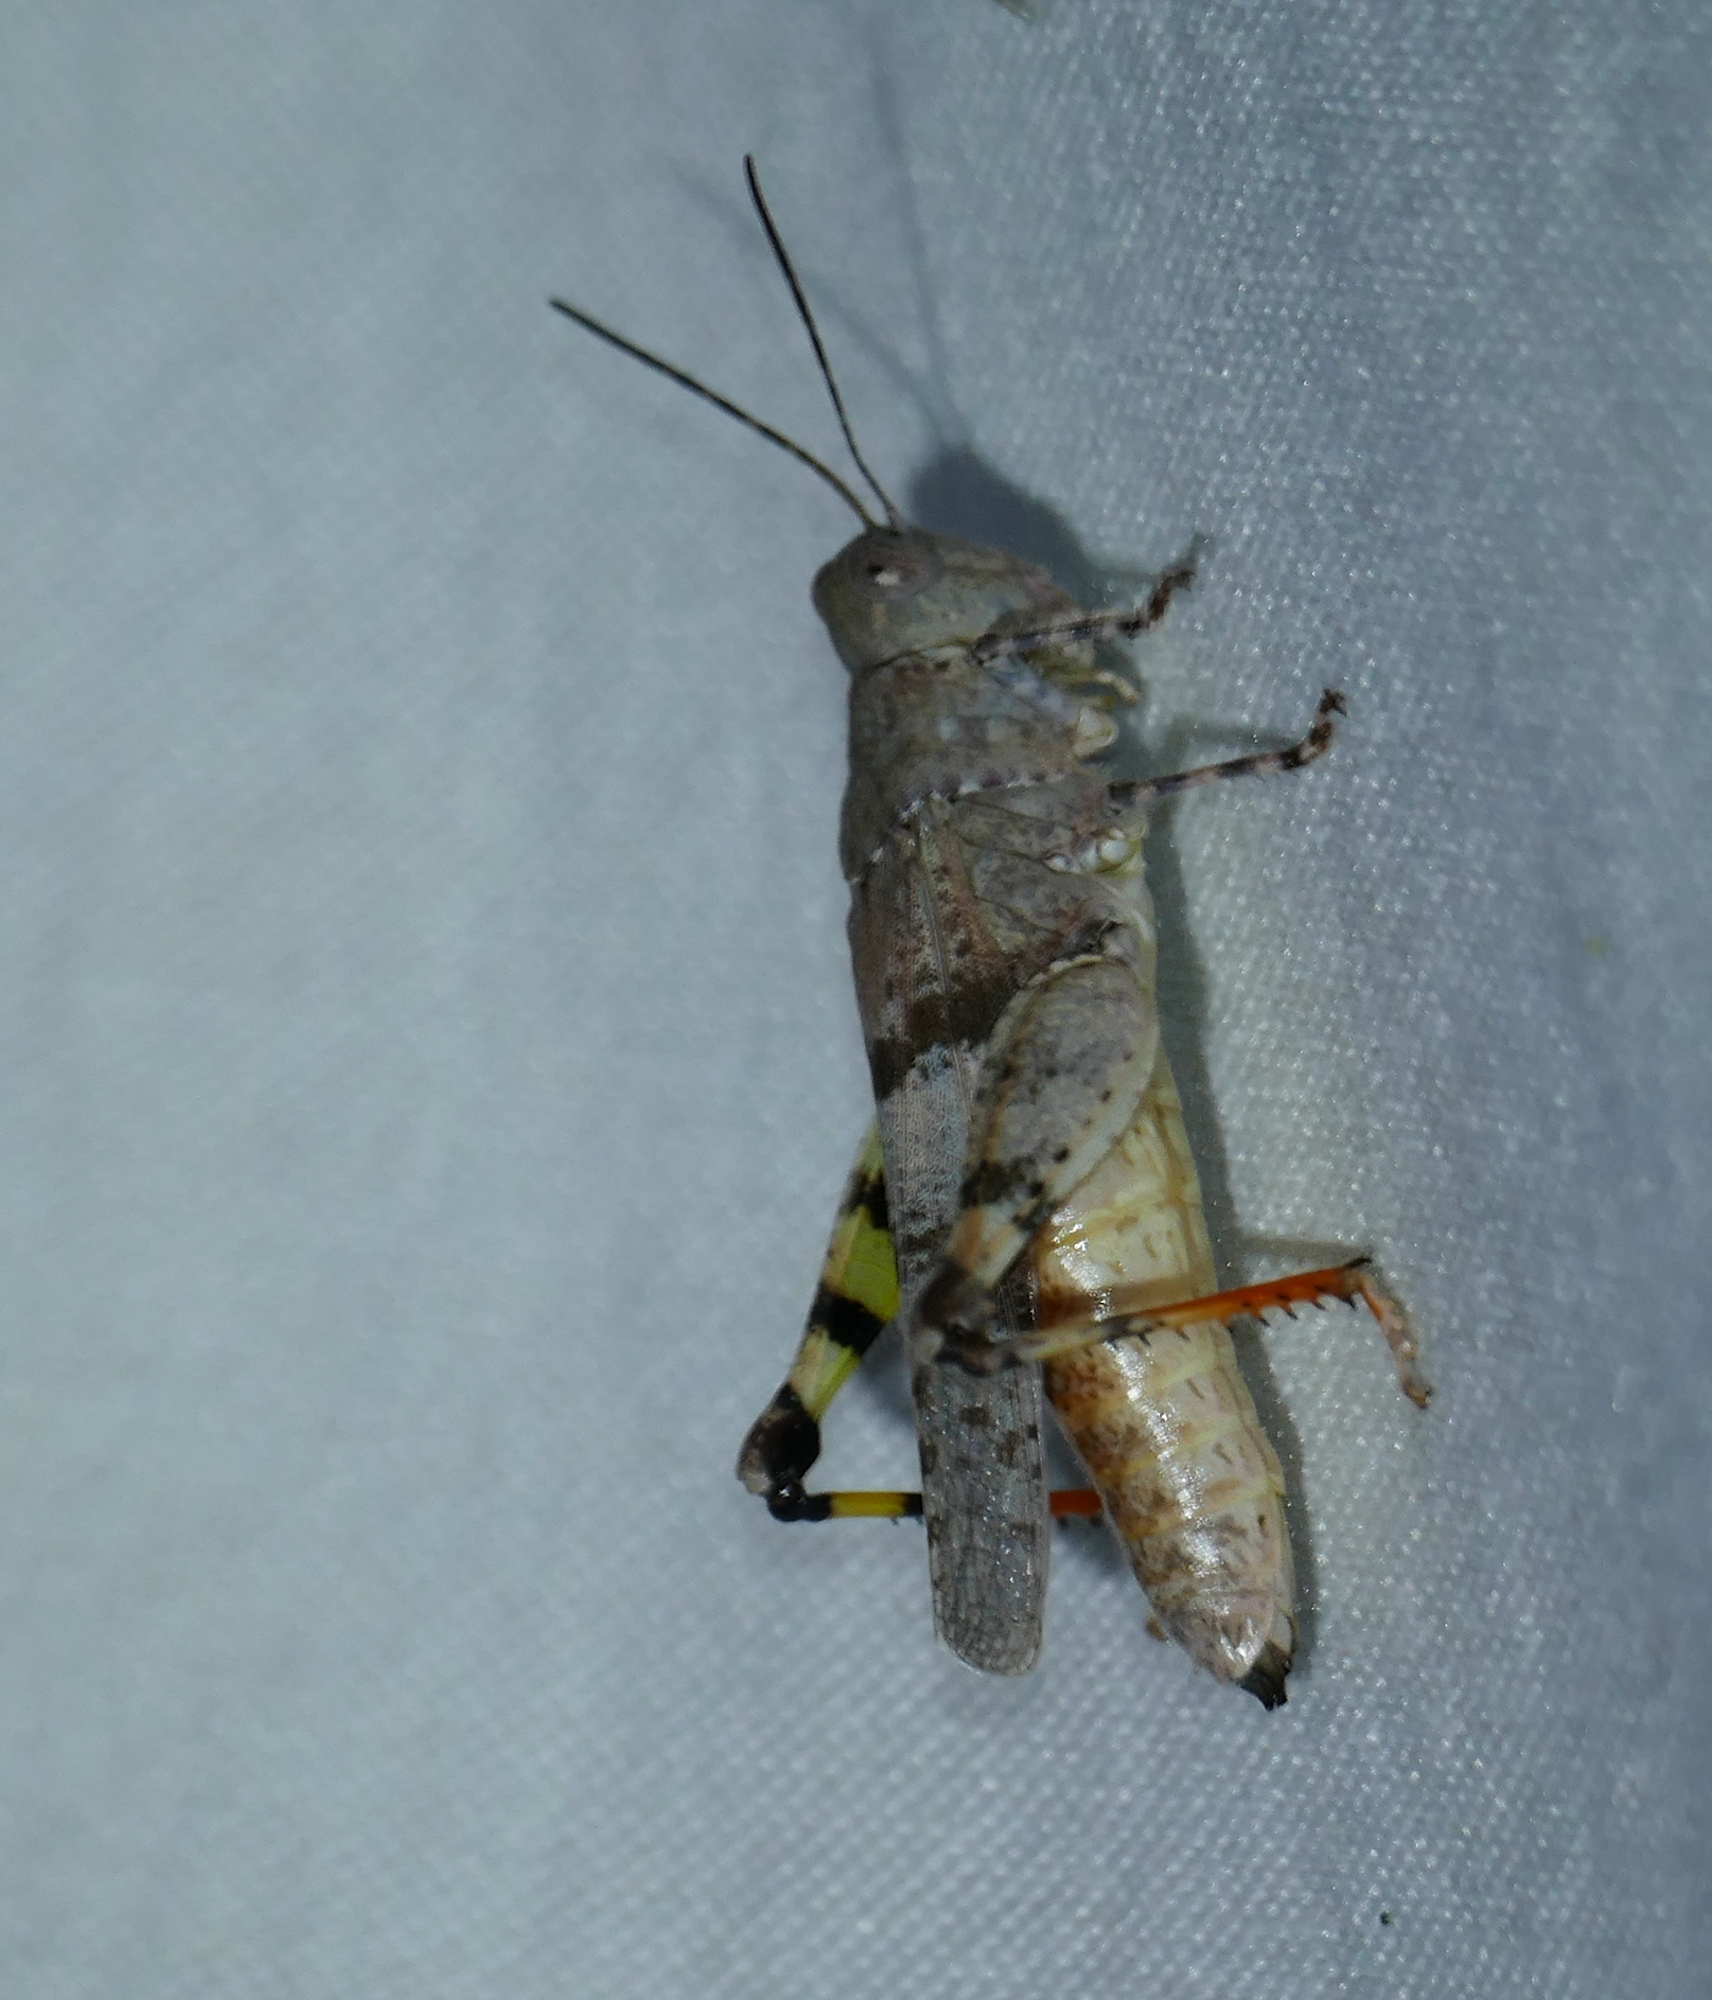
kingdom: Animalia
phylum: Arthropoda
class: Insecta
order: Orthoptera
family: Acrididae
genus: Heliastus
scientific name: Heliastus benjamini
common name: Arroyo grasshopper
